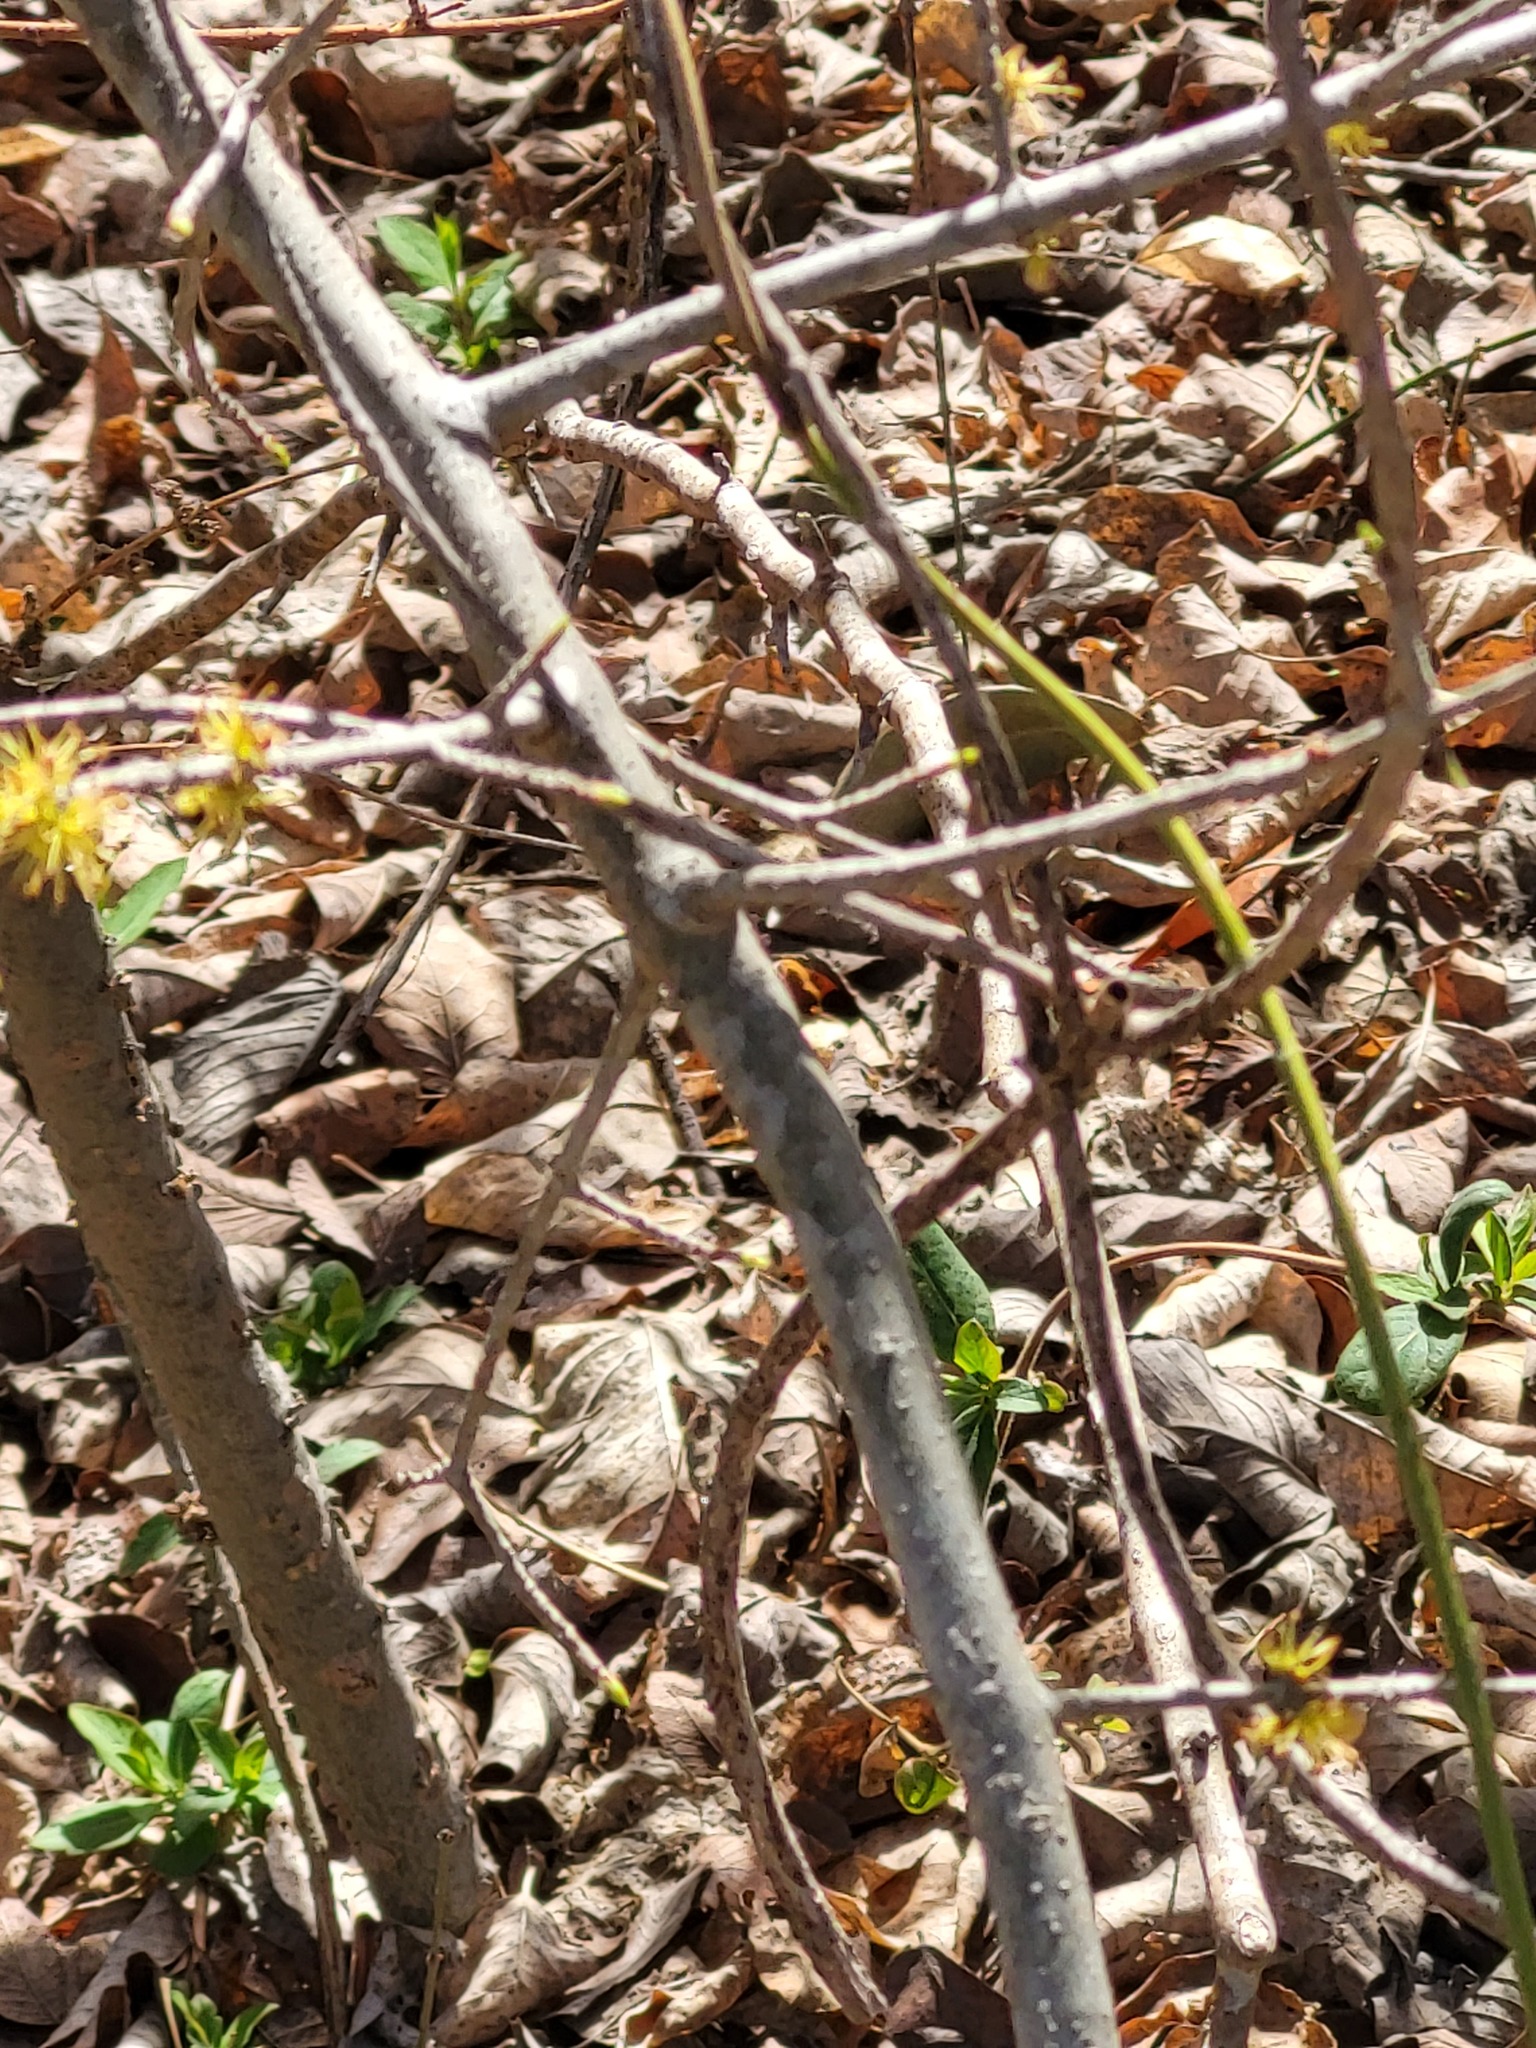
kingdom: Plantae
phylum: Tracheophyta
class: Magnoliopsida
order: Lamiales
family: Oleaceae
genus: Forestiera
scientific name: Forestiera pubescens
